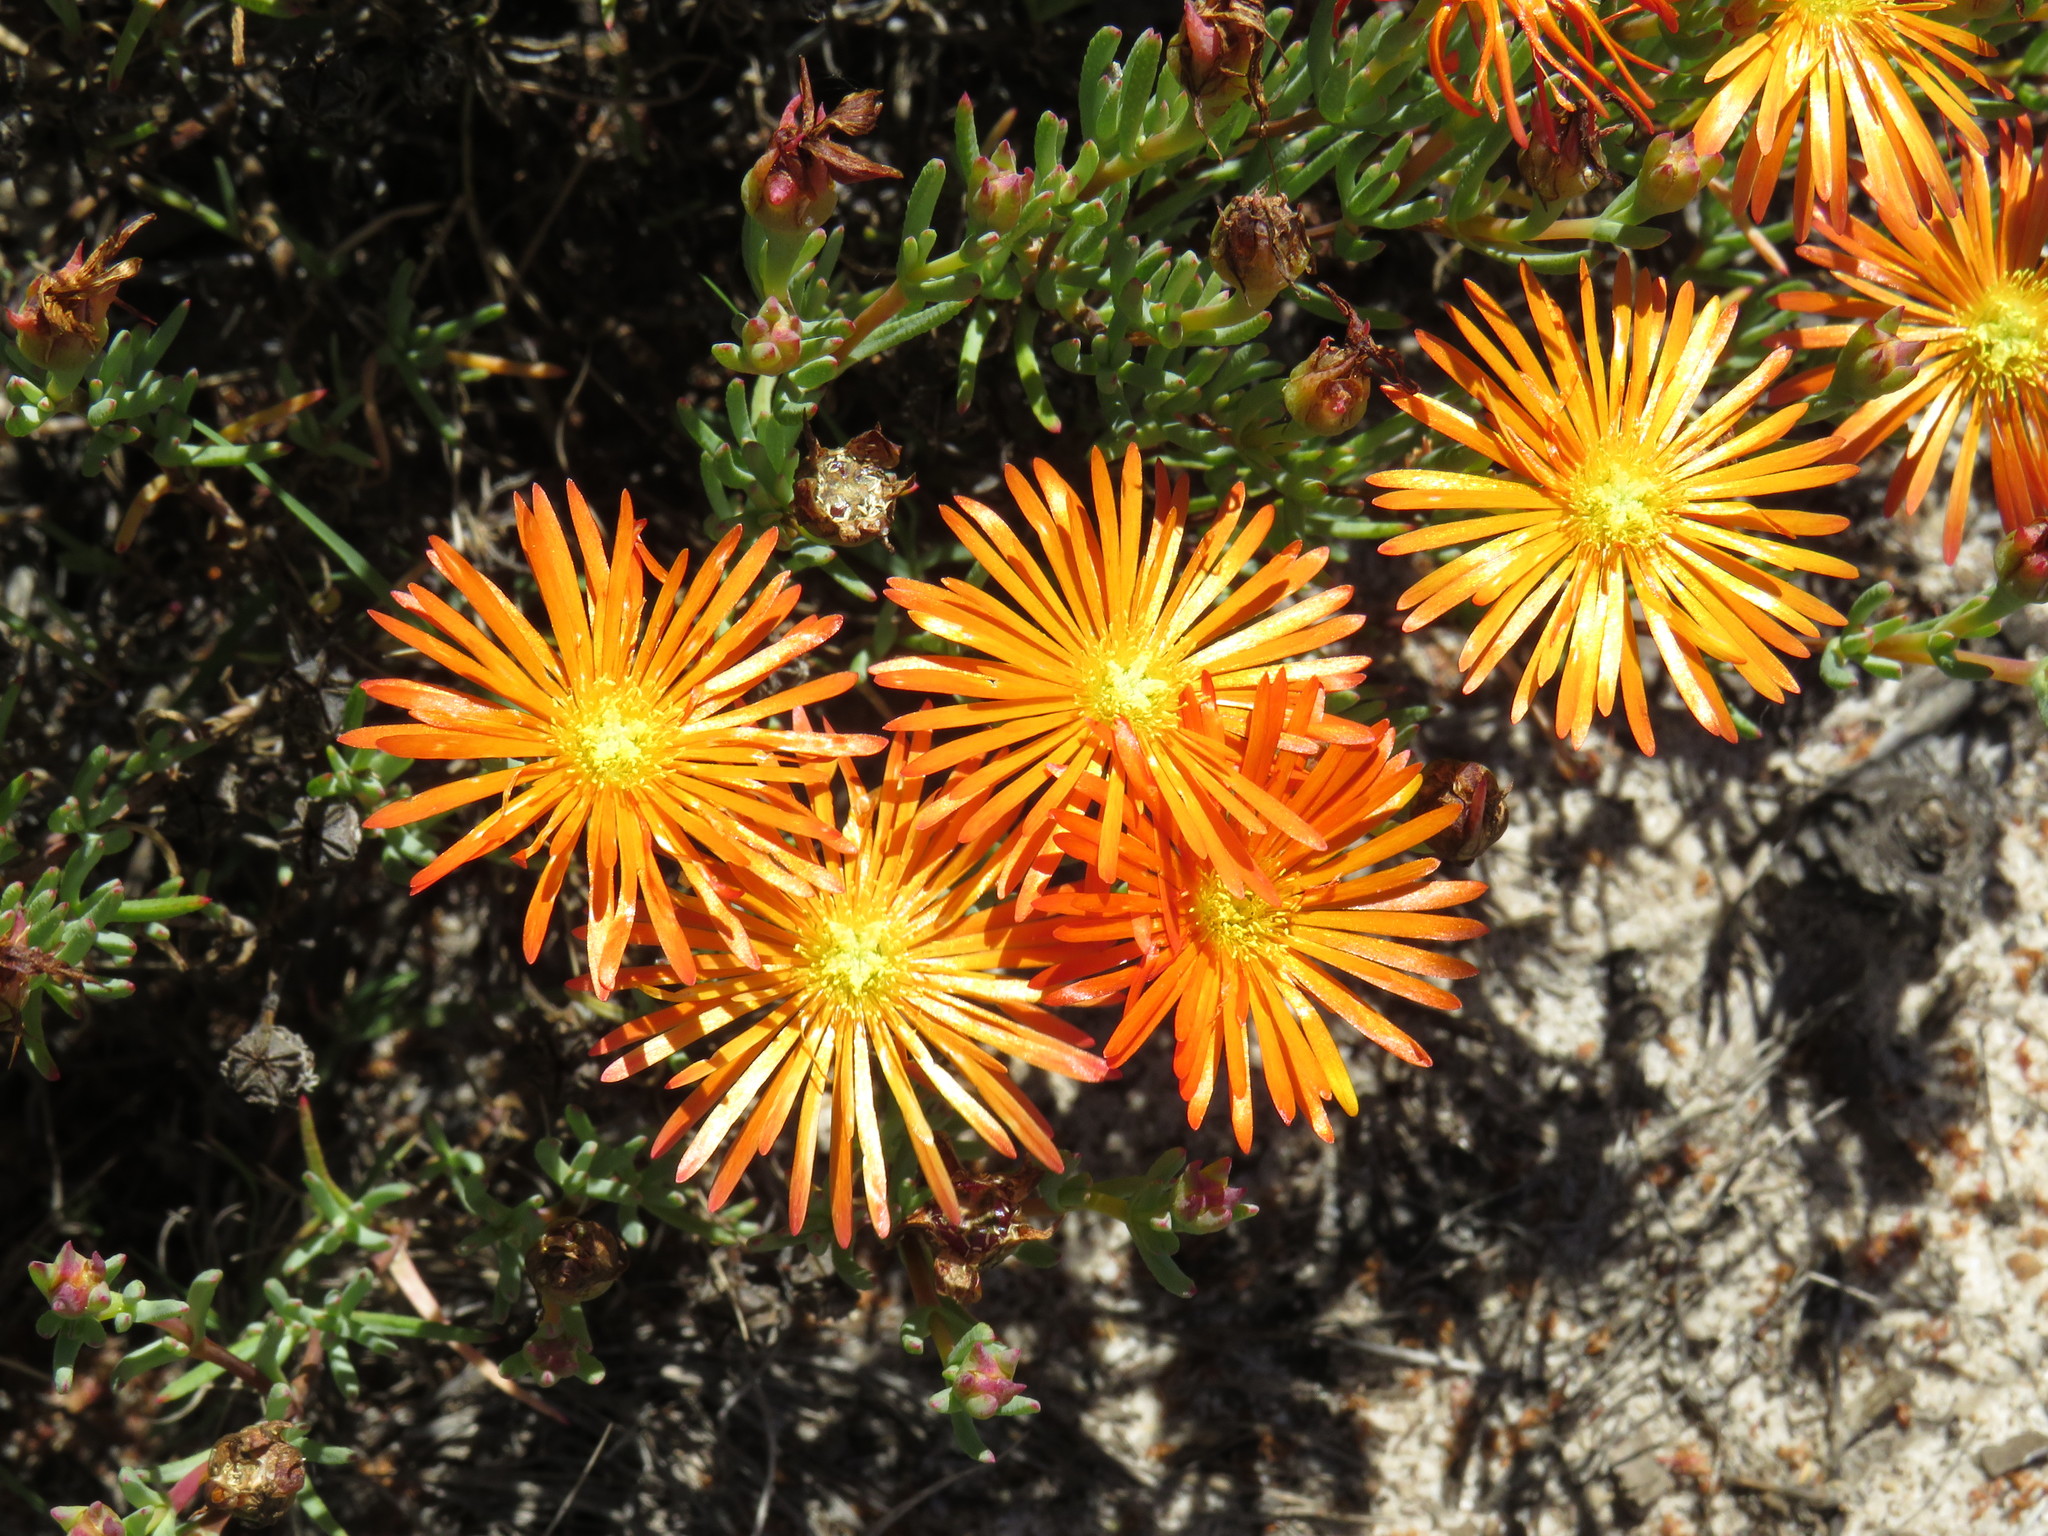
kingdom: Plantae
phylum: Tracheophyta
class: Magnoliopsida
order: Caryophyllales
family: Aizoaceae
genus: Lampranthus
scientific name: Lampranthus glaucoides
